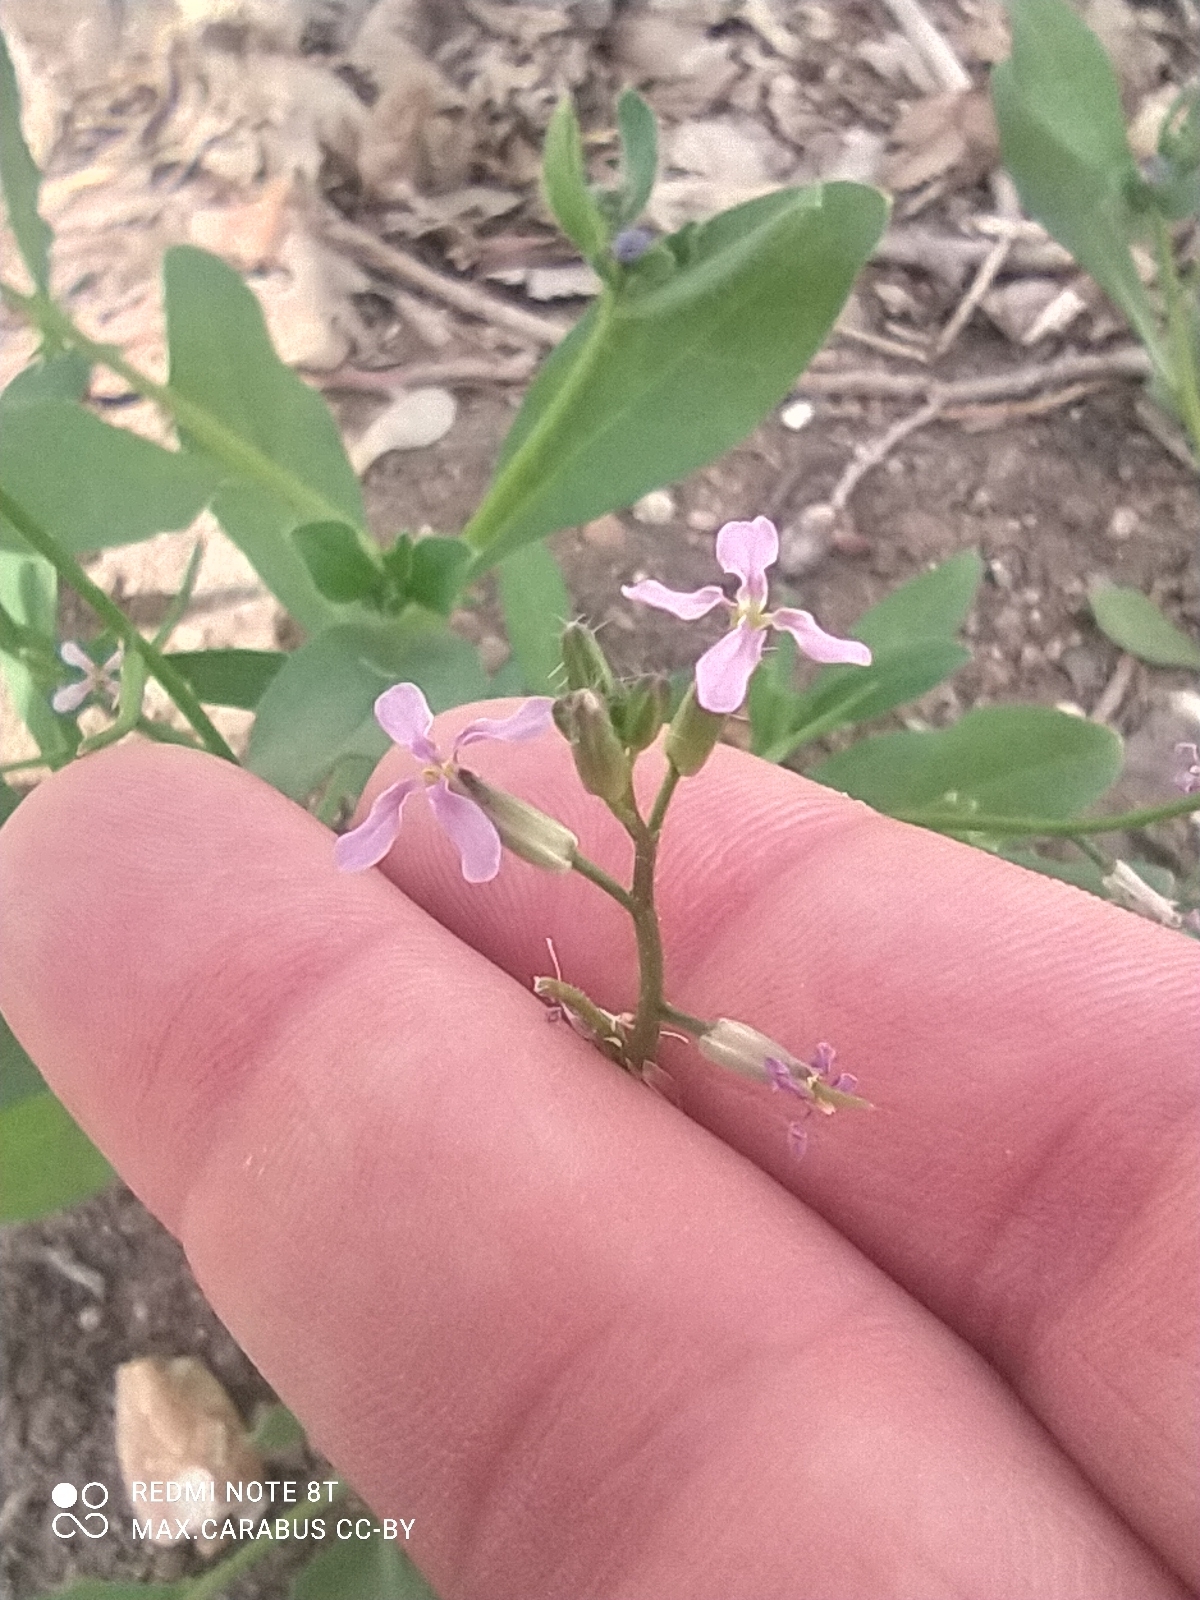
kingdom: Plantae
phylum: Tracheophyta
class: Magnoliopsida
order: Brassicales
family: Brassicaceae
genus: Chorispora
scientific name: Chorispora tenella
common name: Crossflower
